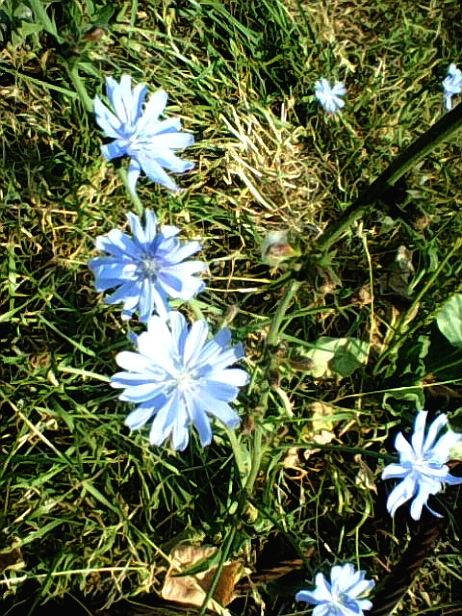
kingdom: Plantae
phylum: Tracheophyta
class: Magnoliopsida
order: Asterales
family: Asteraceae
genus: Cichorium
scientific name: Cichorium intybus
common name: Chicory
